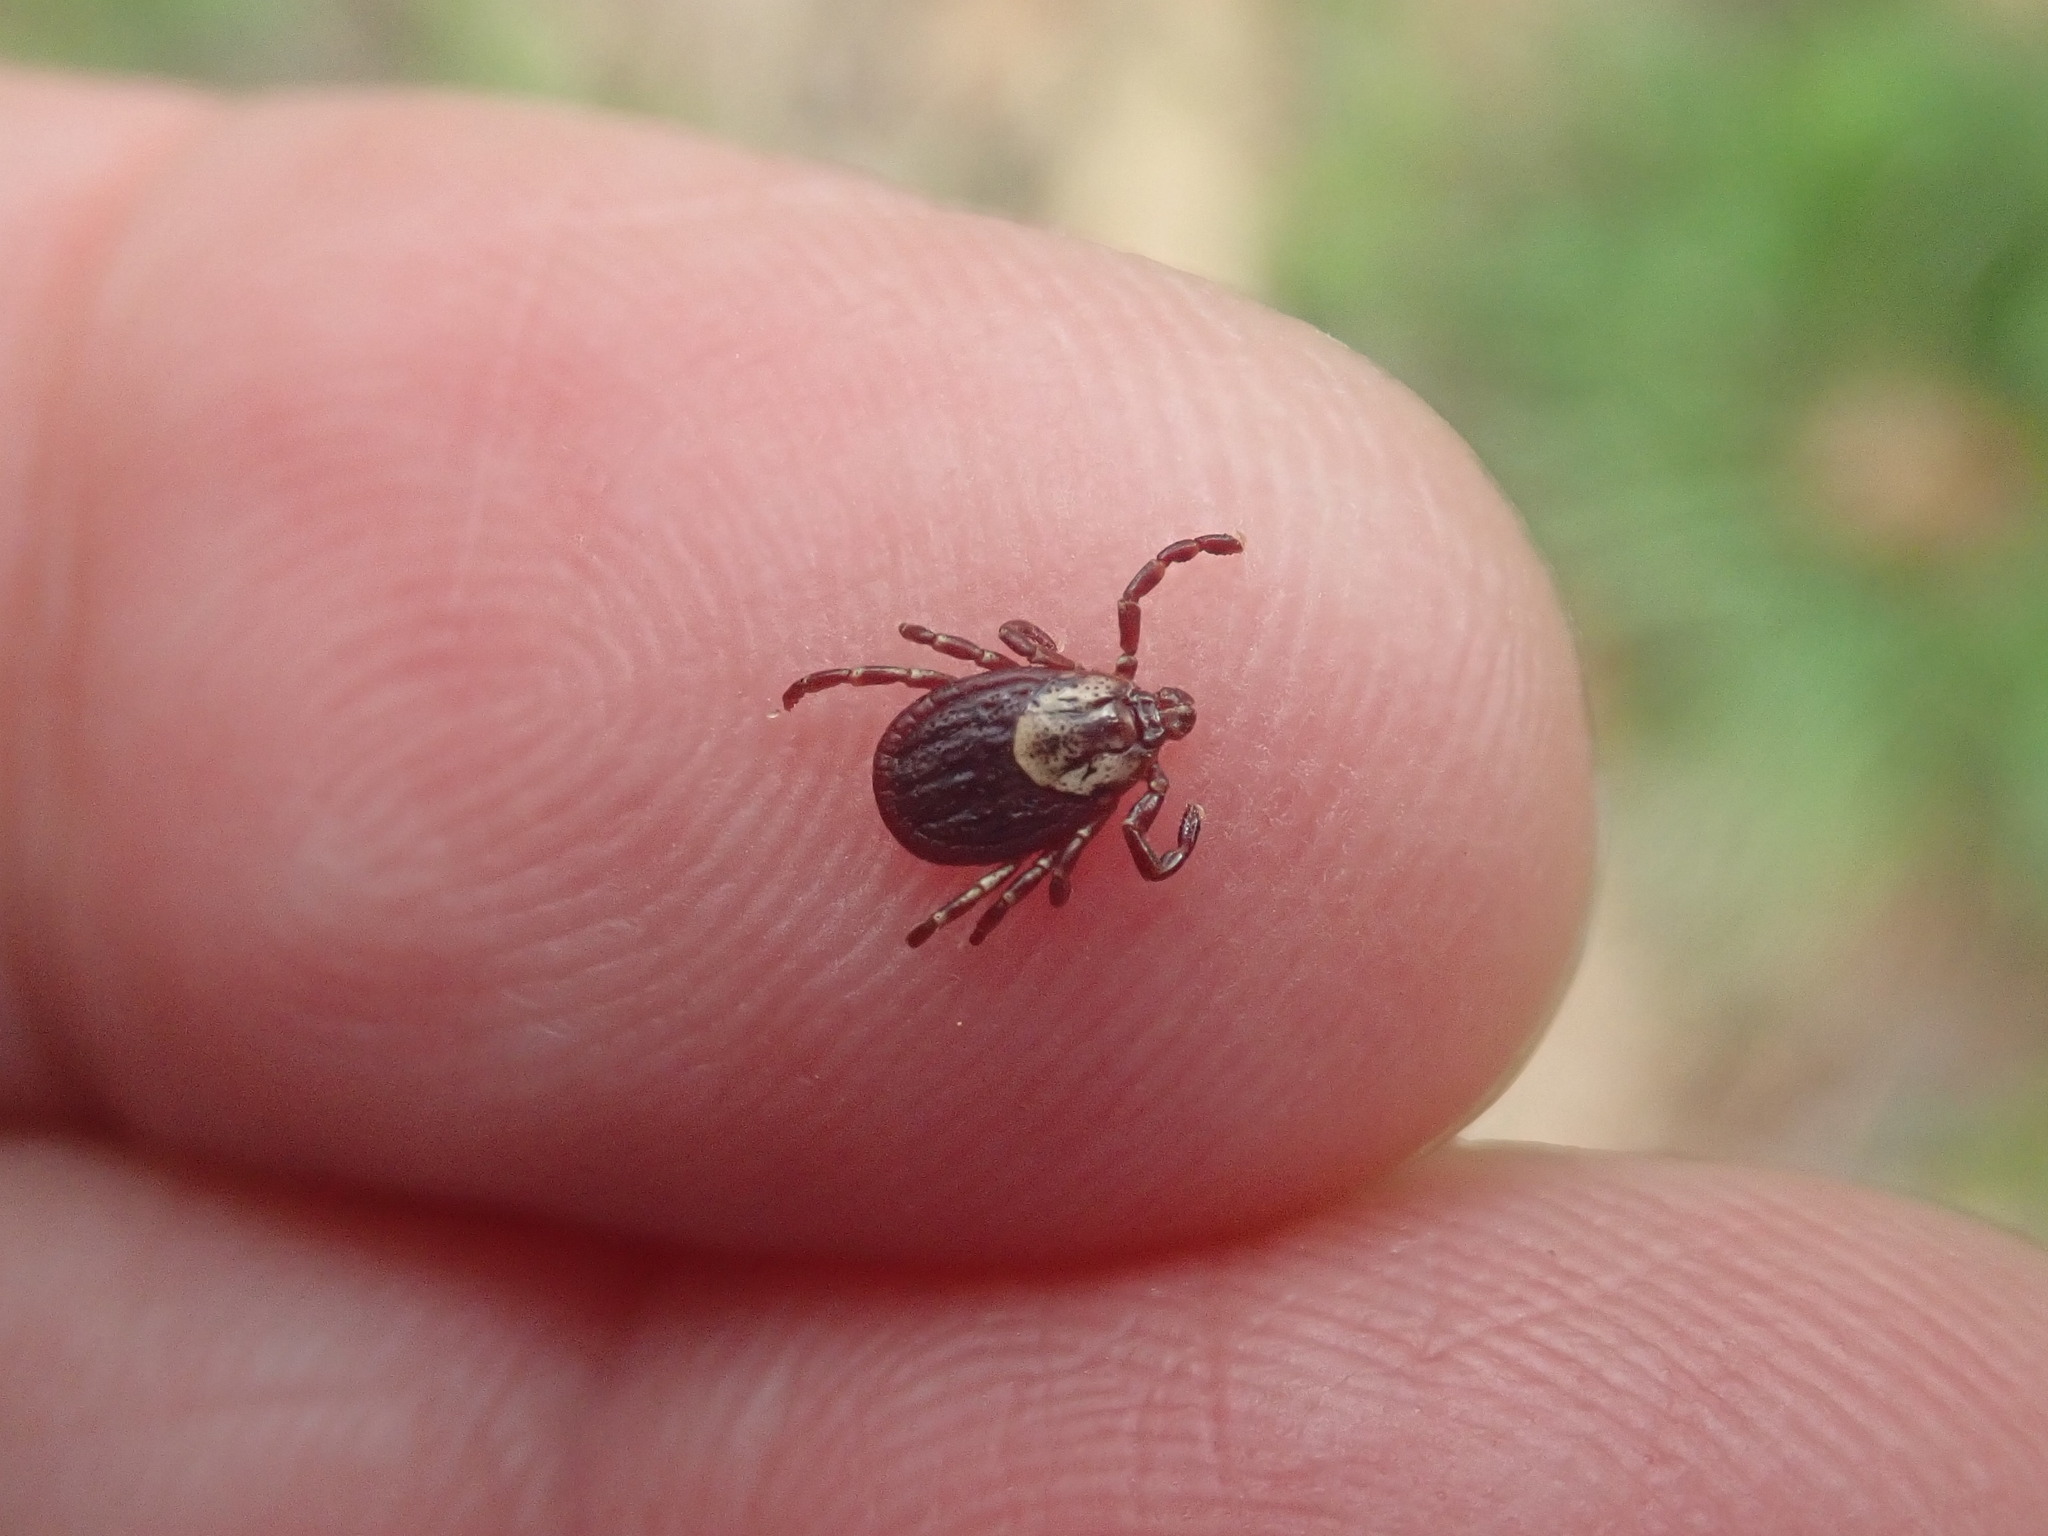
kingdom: Animalia
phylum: Arthropoda
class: Arachnida
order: Ixodida
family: Ixodidae
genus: Dermacentor
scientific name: Dermacentor variabilis
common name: American dog tick
